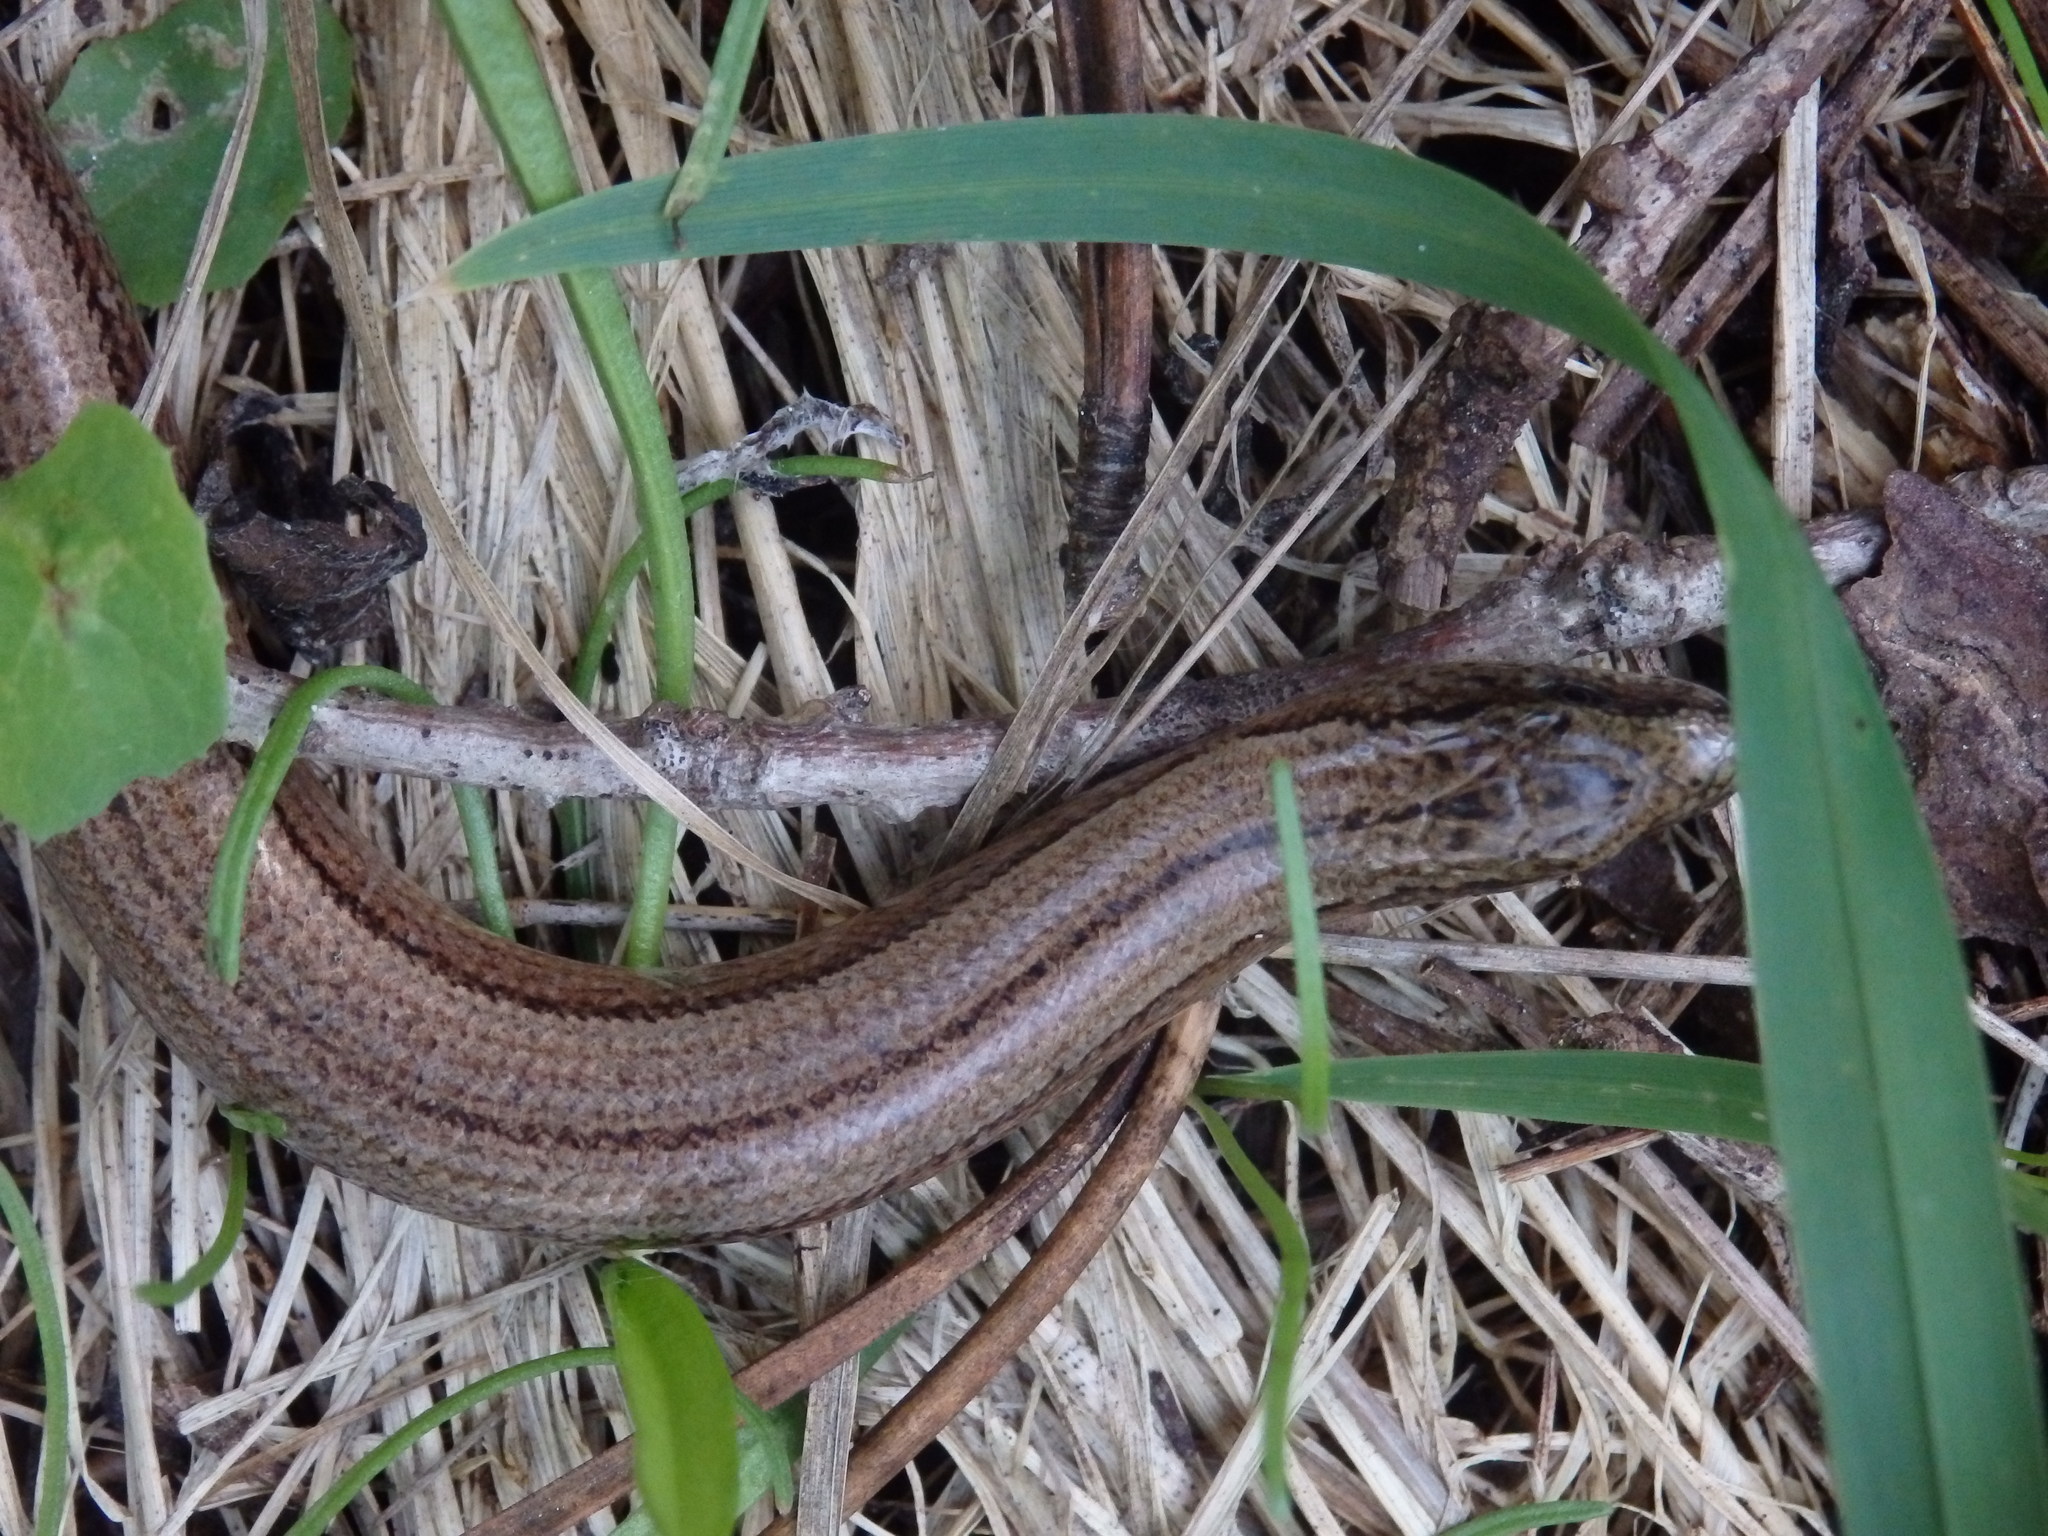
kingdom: Animalia
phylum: Chordata
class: Squamata
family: Anguidae
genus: Anguis
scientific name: Anguis fragilis
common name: Slow worm
